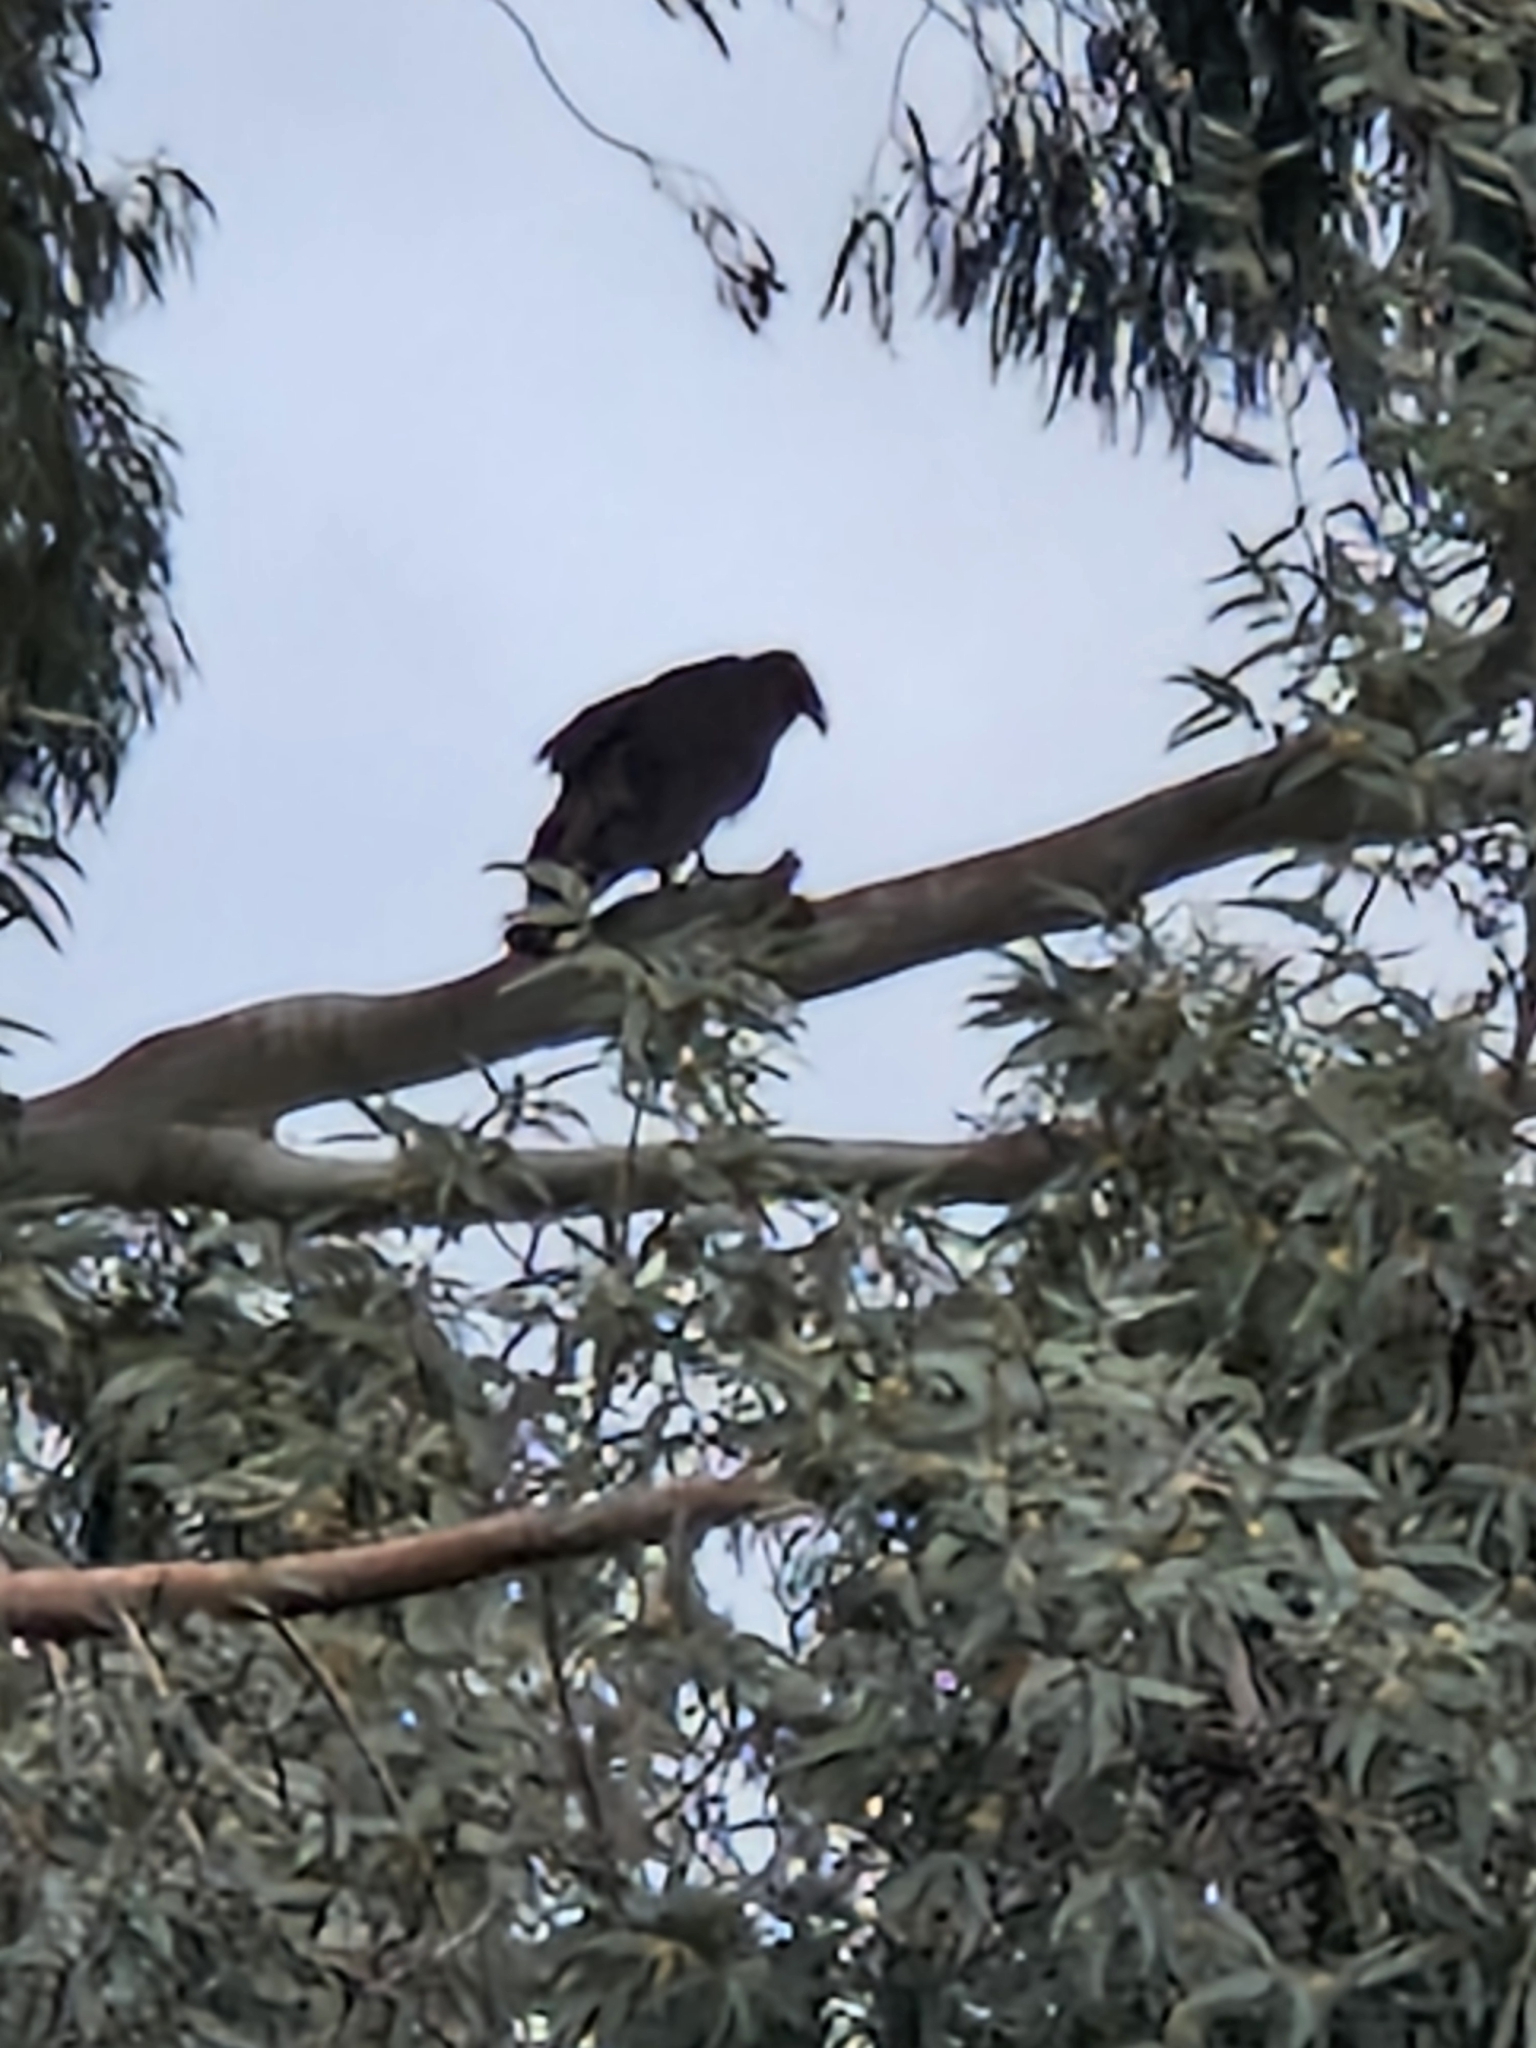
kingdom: Animalia
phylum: Chordata
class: Aves
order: Accipitriformes
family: Cathartidae
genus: Cathartes
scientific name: Cathartes aura
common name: Turkey vulture
